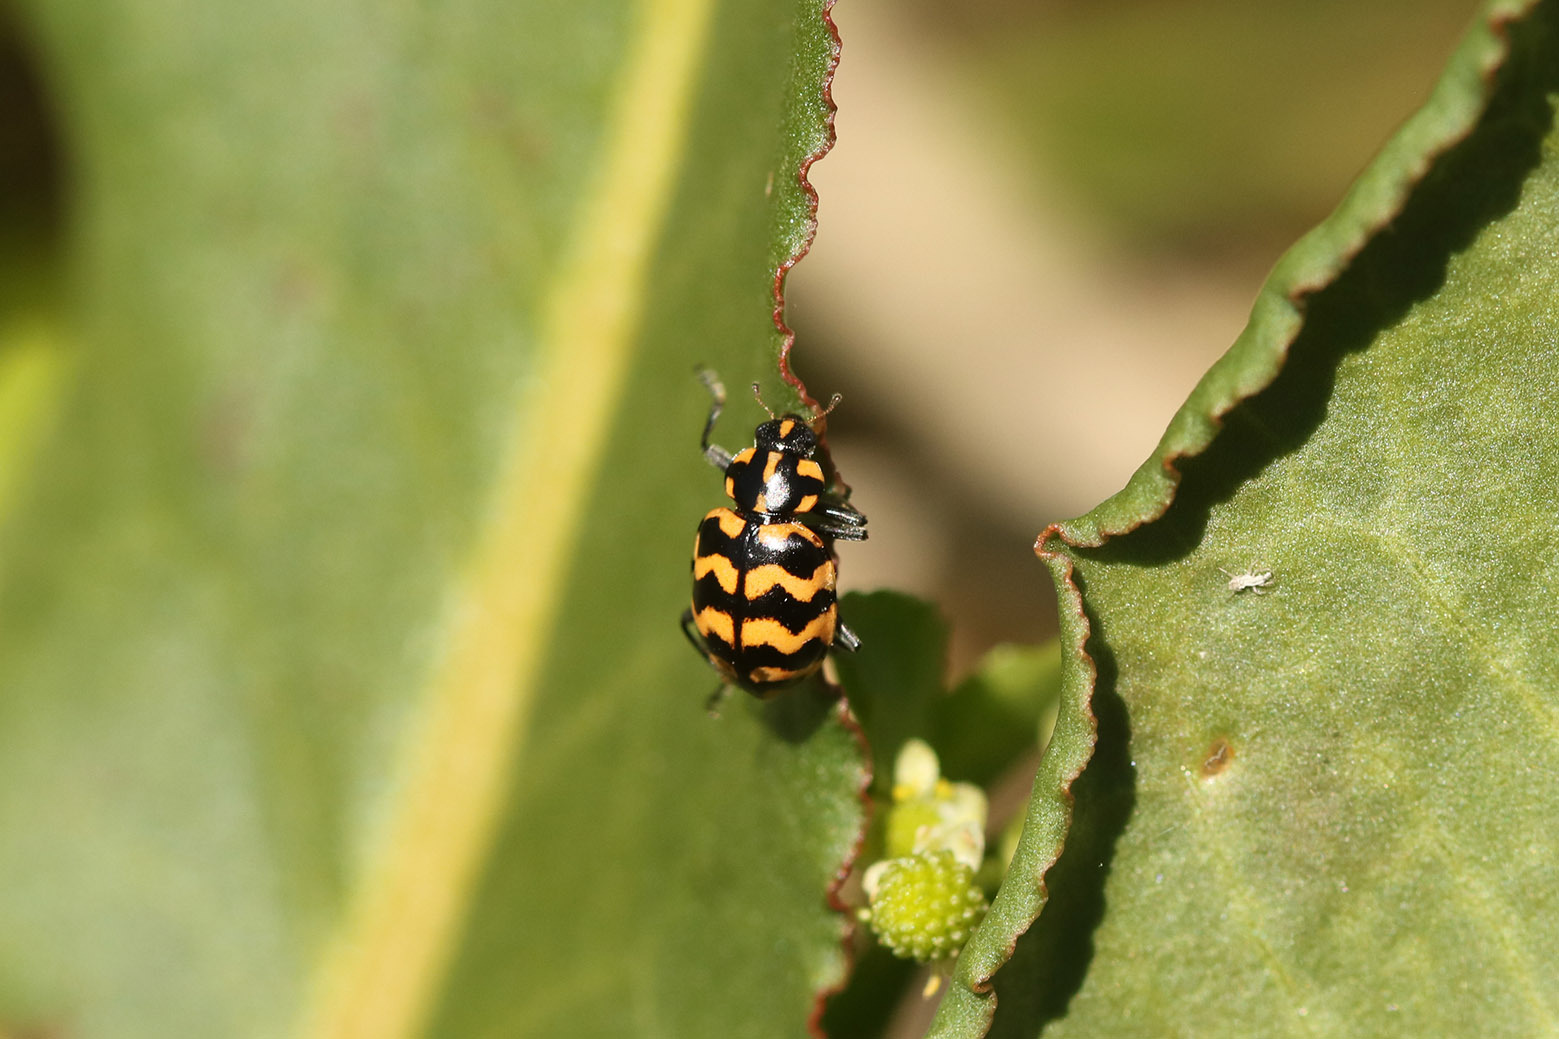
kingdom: Animalia
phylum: Arthropoda
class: Insecta
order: Coleoptera
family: Coccinellidae
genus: Coleomegilla
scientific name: Coleomegilla
